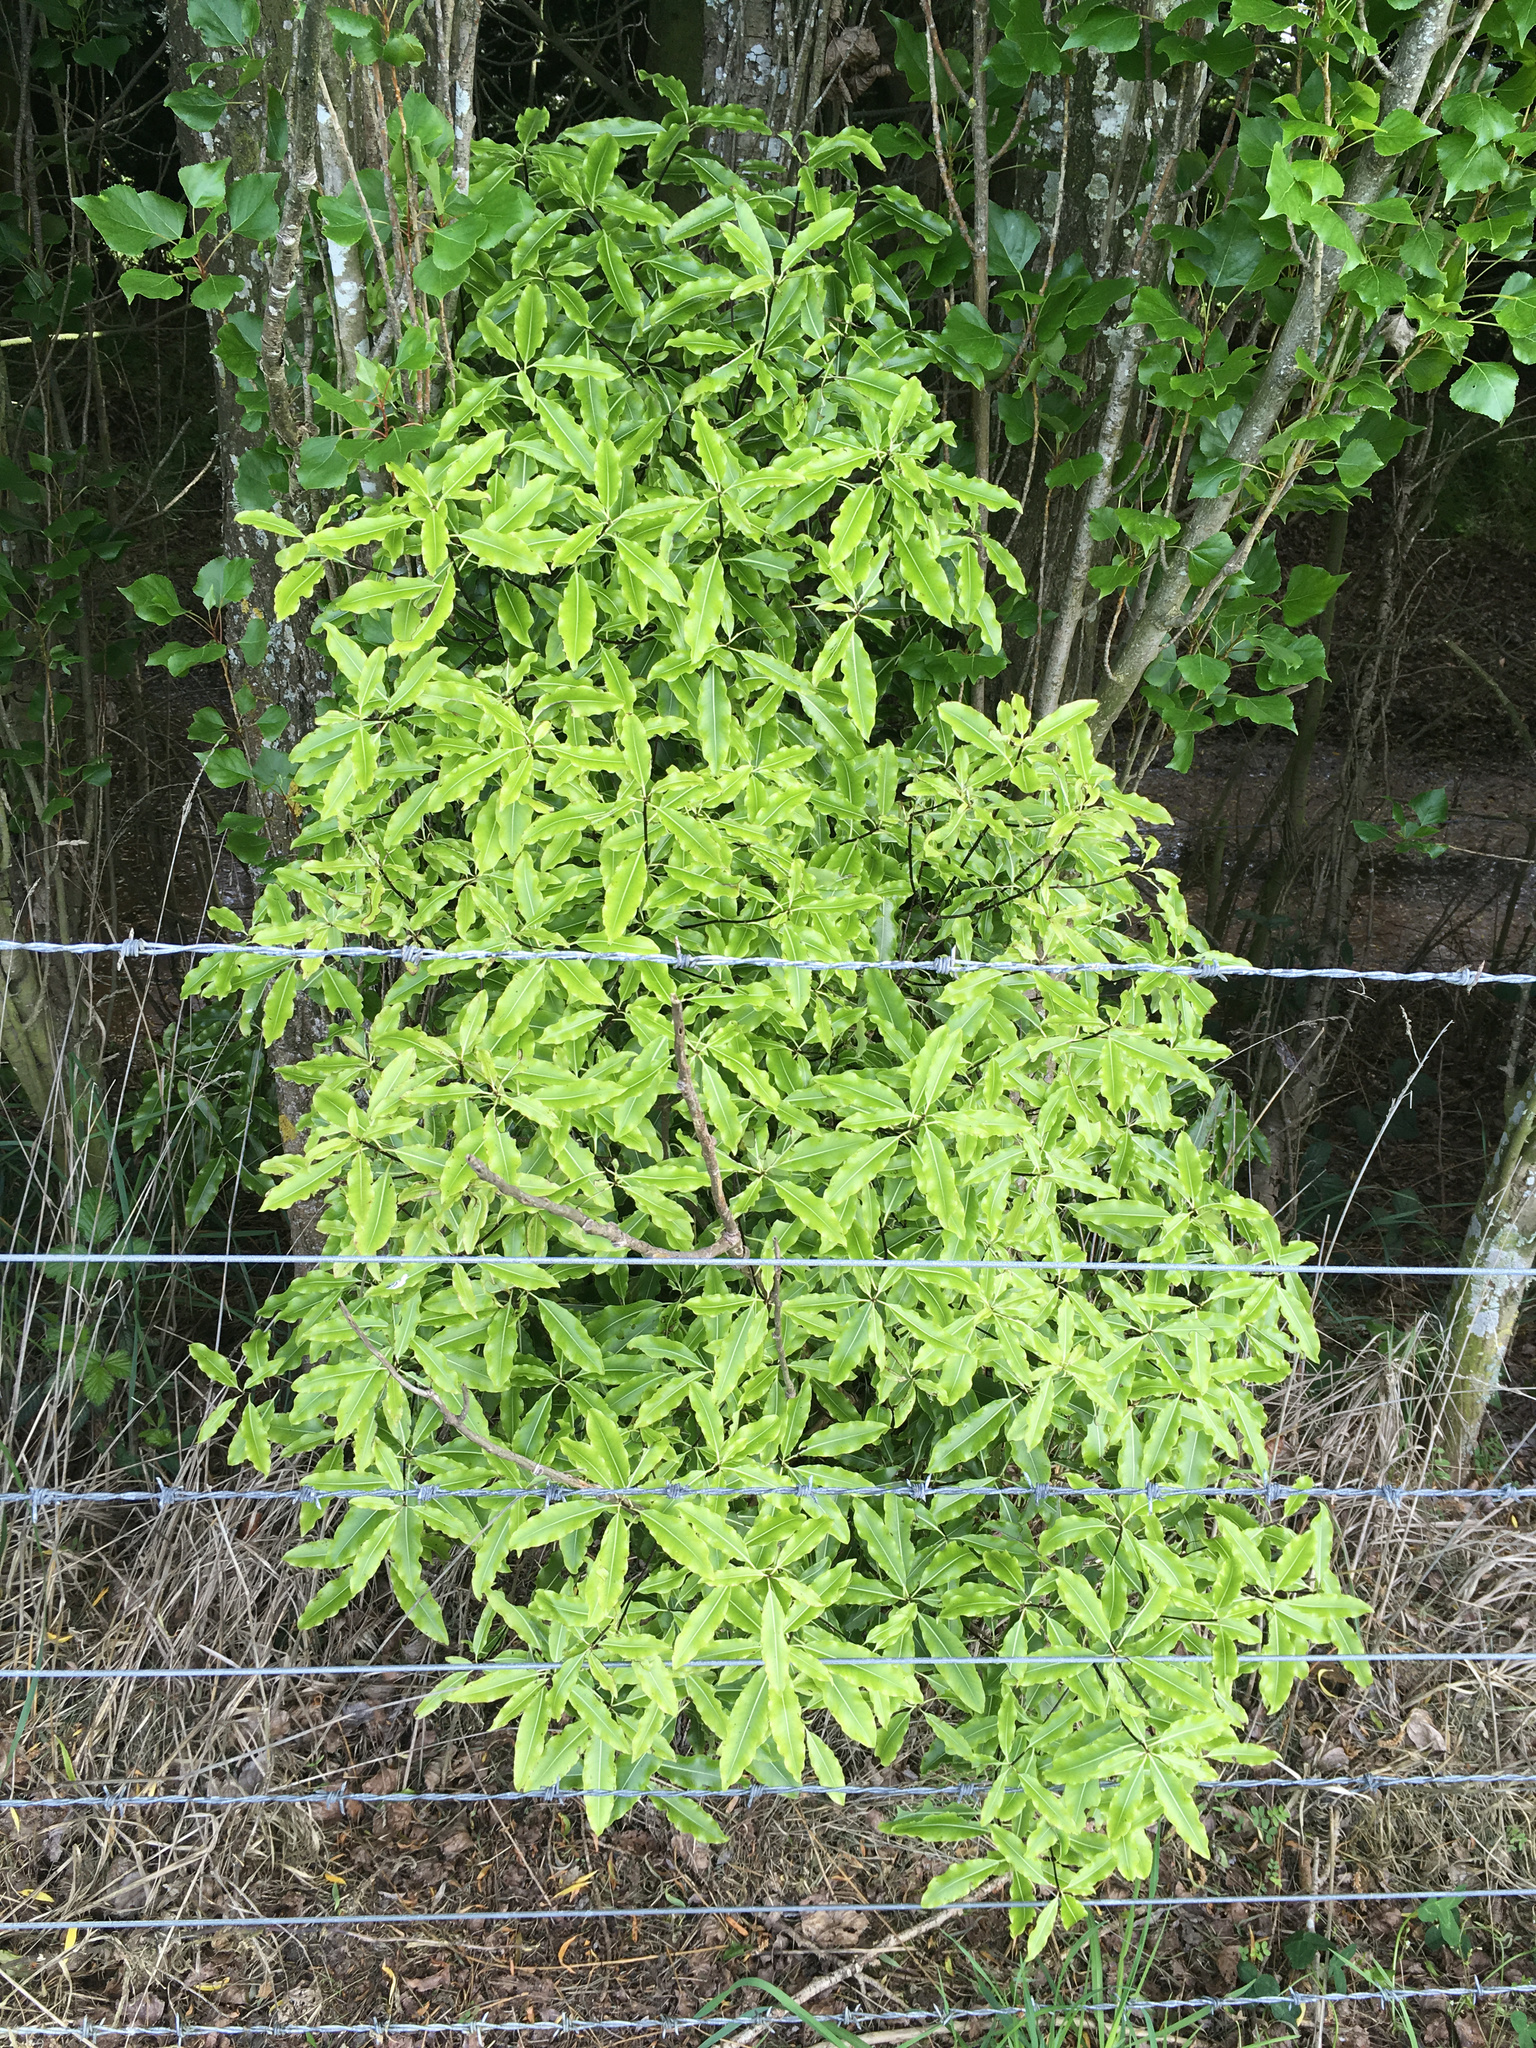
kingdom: Plantae
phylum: Tracheophyta
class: Magnoliopsida
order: Apiales
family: Pittosporaceae
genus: Pittosporum
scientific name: Pittosporum eugenioides
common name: Lemonwood
